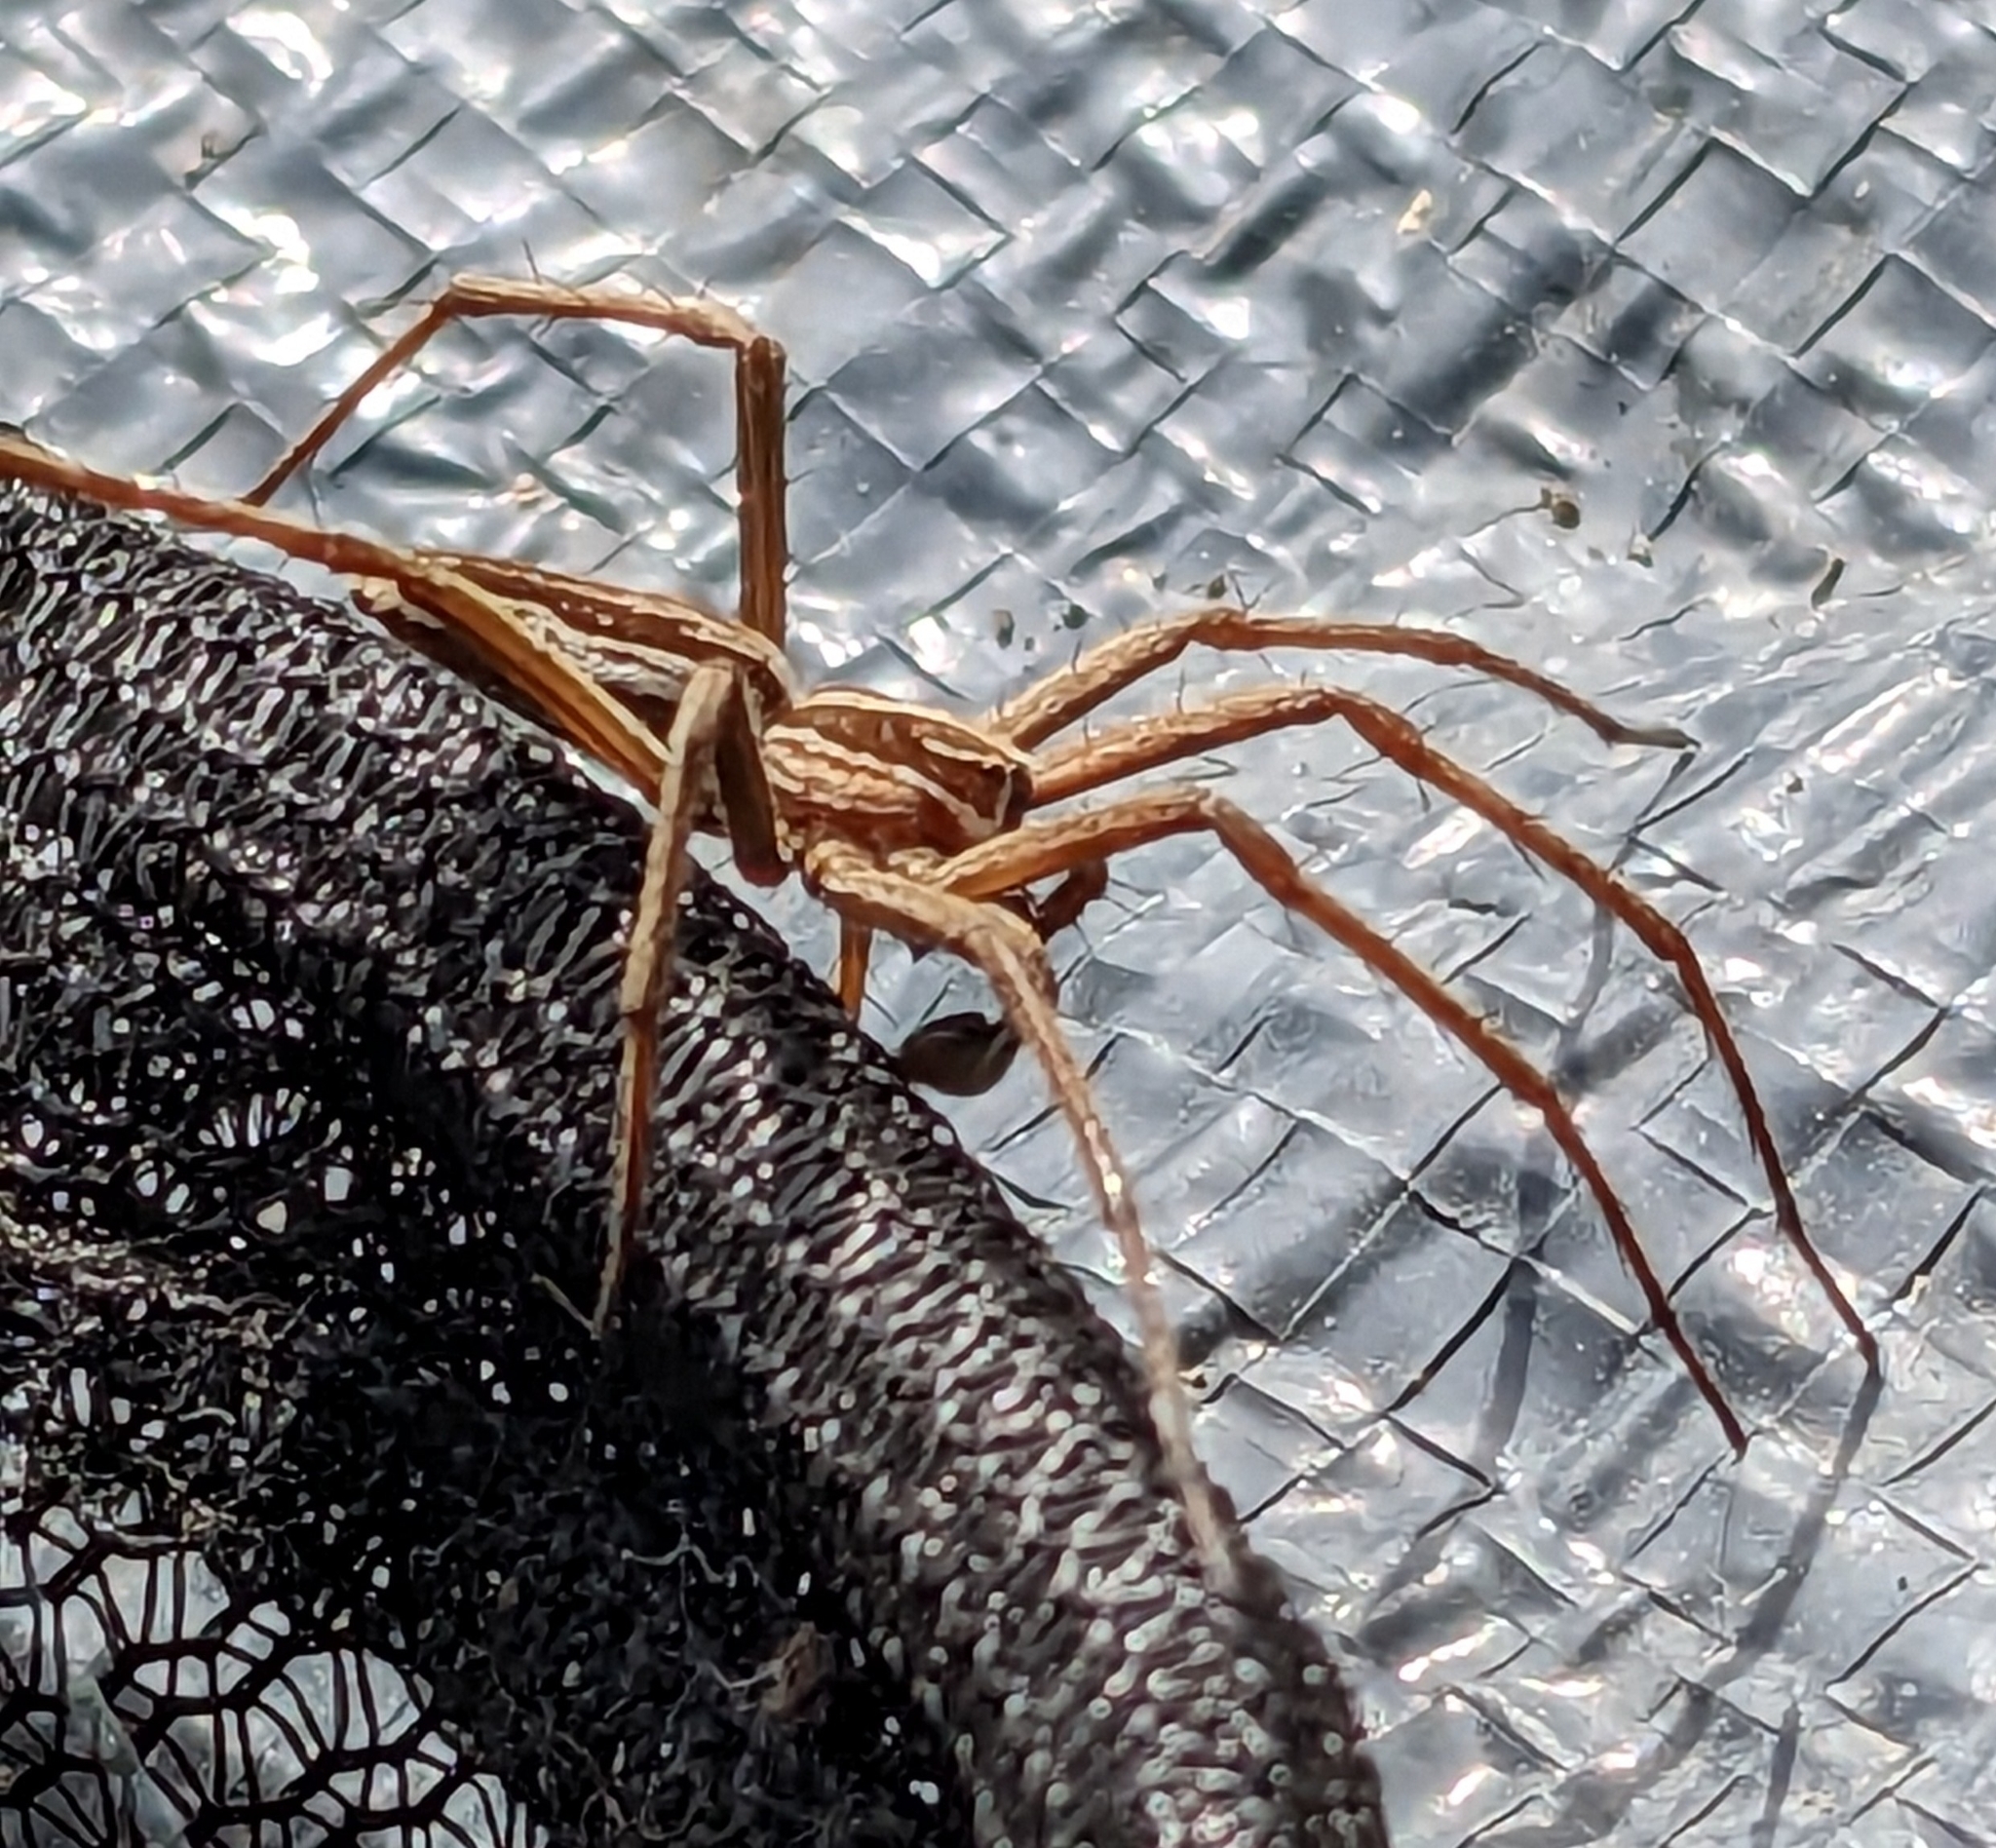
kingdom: Animalia
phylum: Arthropoda
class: Arachnida
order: Araneae
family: Pisauridae
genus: Pisaura
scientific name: Pisaura mirabilis
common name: Tent spider
